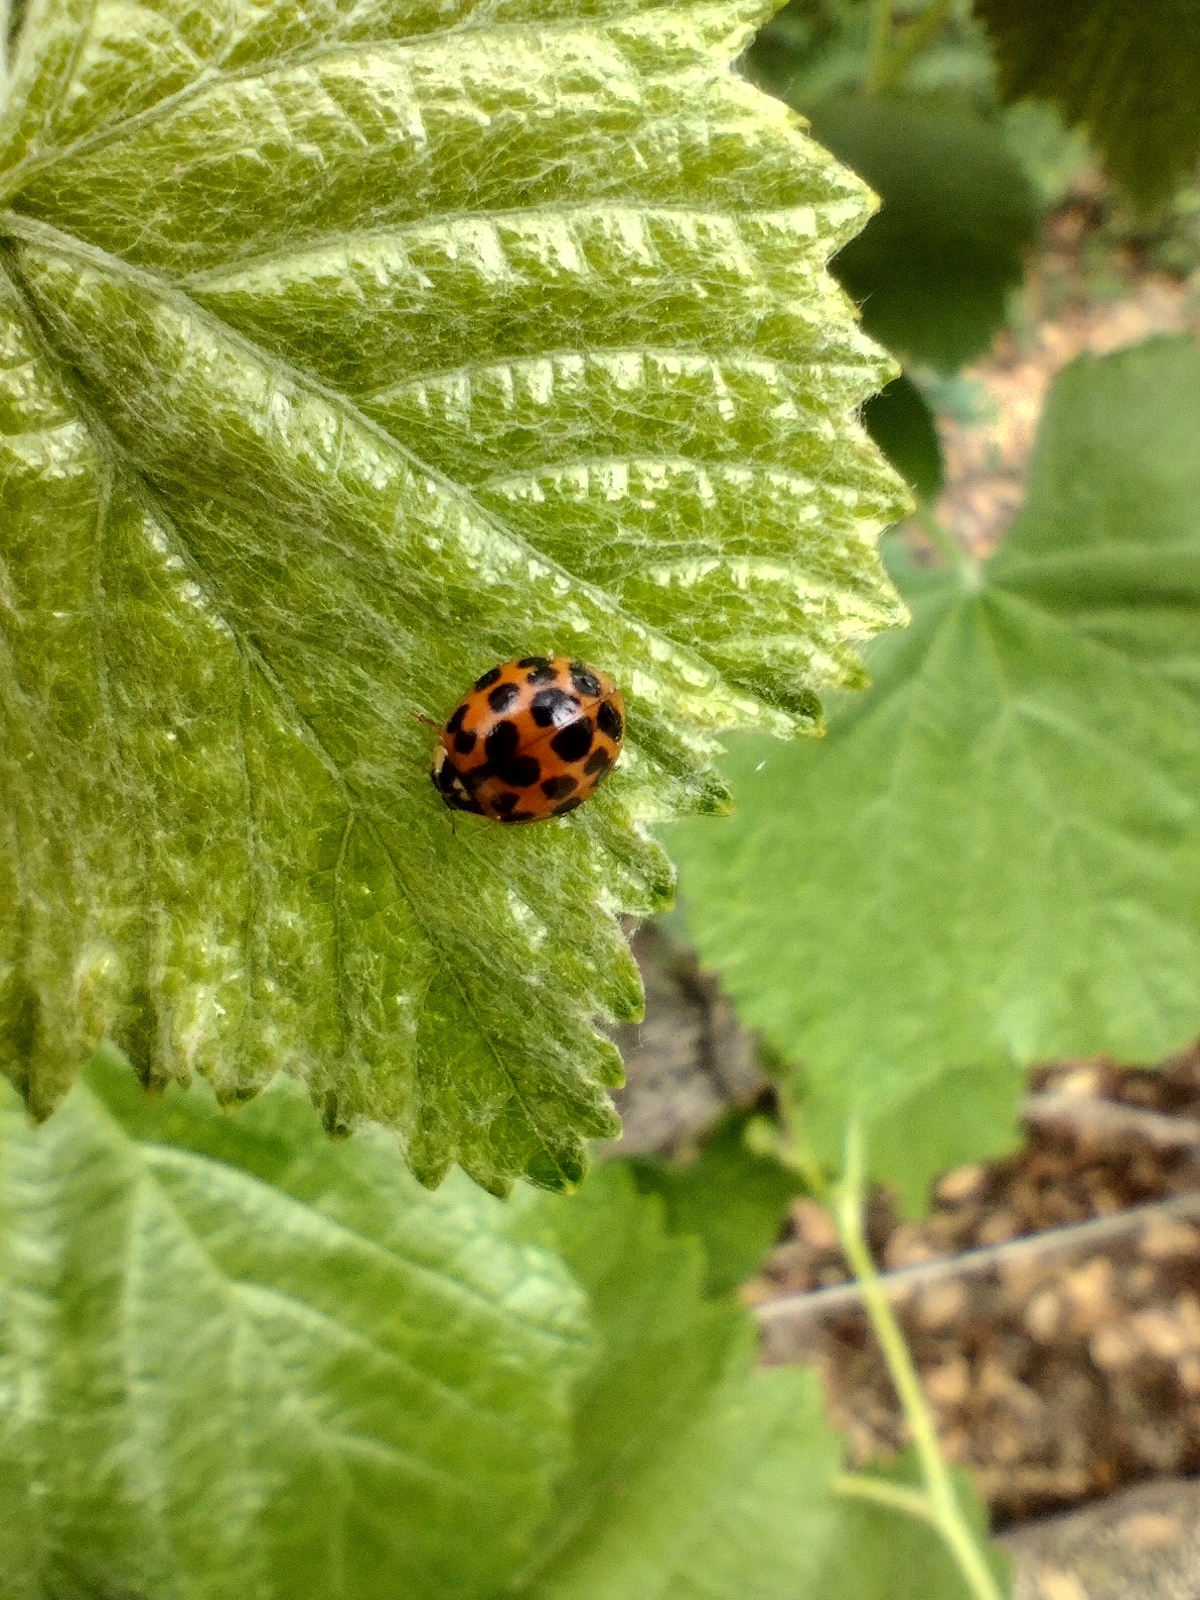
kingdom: Animalia
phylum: Arthropoda
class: Insecta
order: Coleoptera
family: Coccinellidae
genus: Harmonia
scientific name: Harmonia axyridis
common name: Harlequin ladybird
